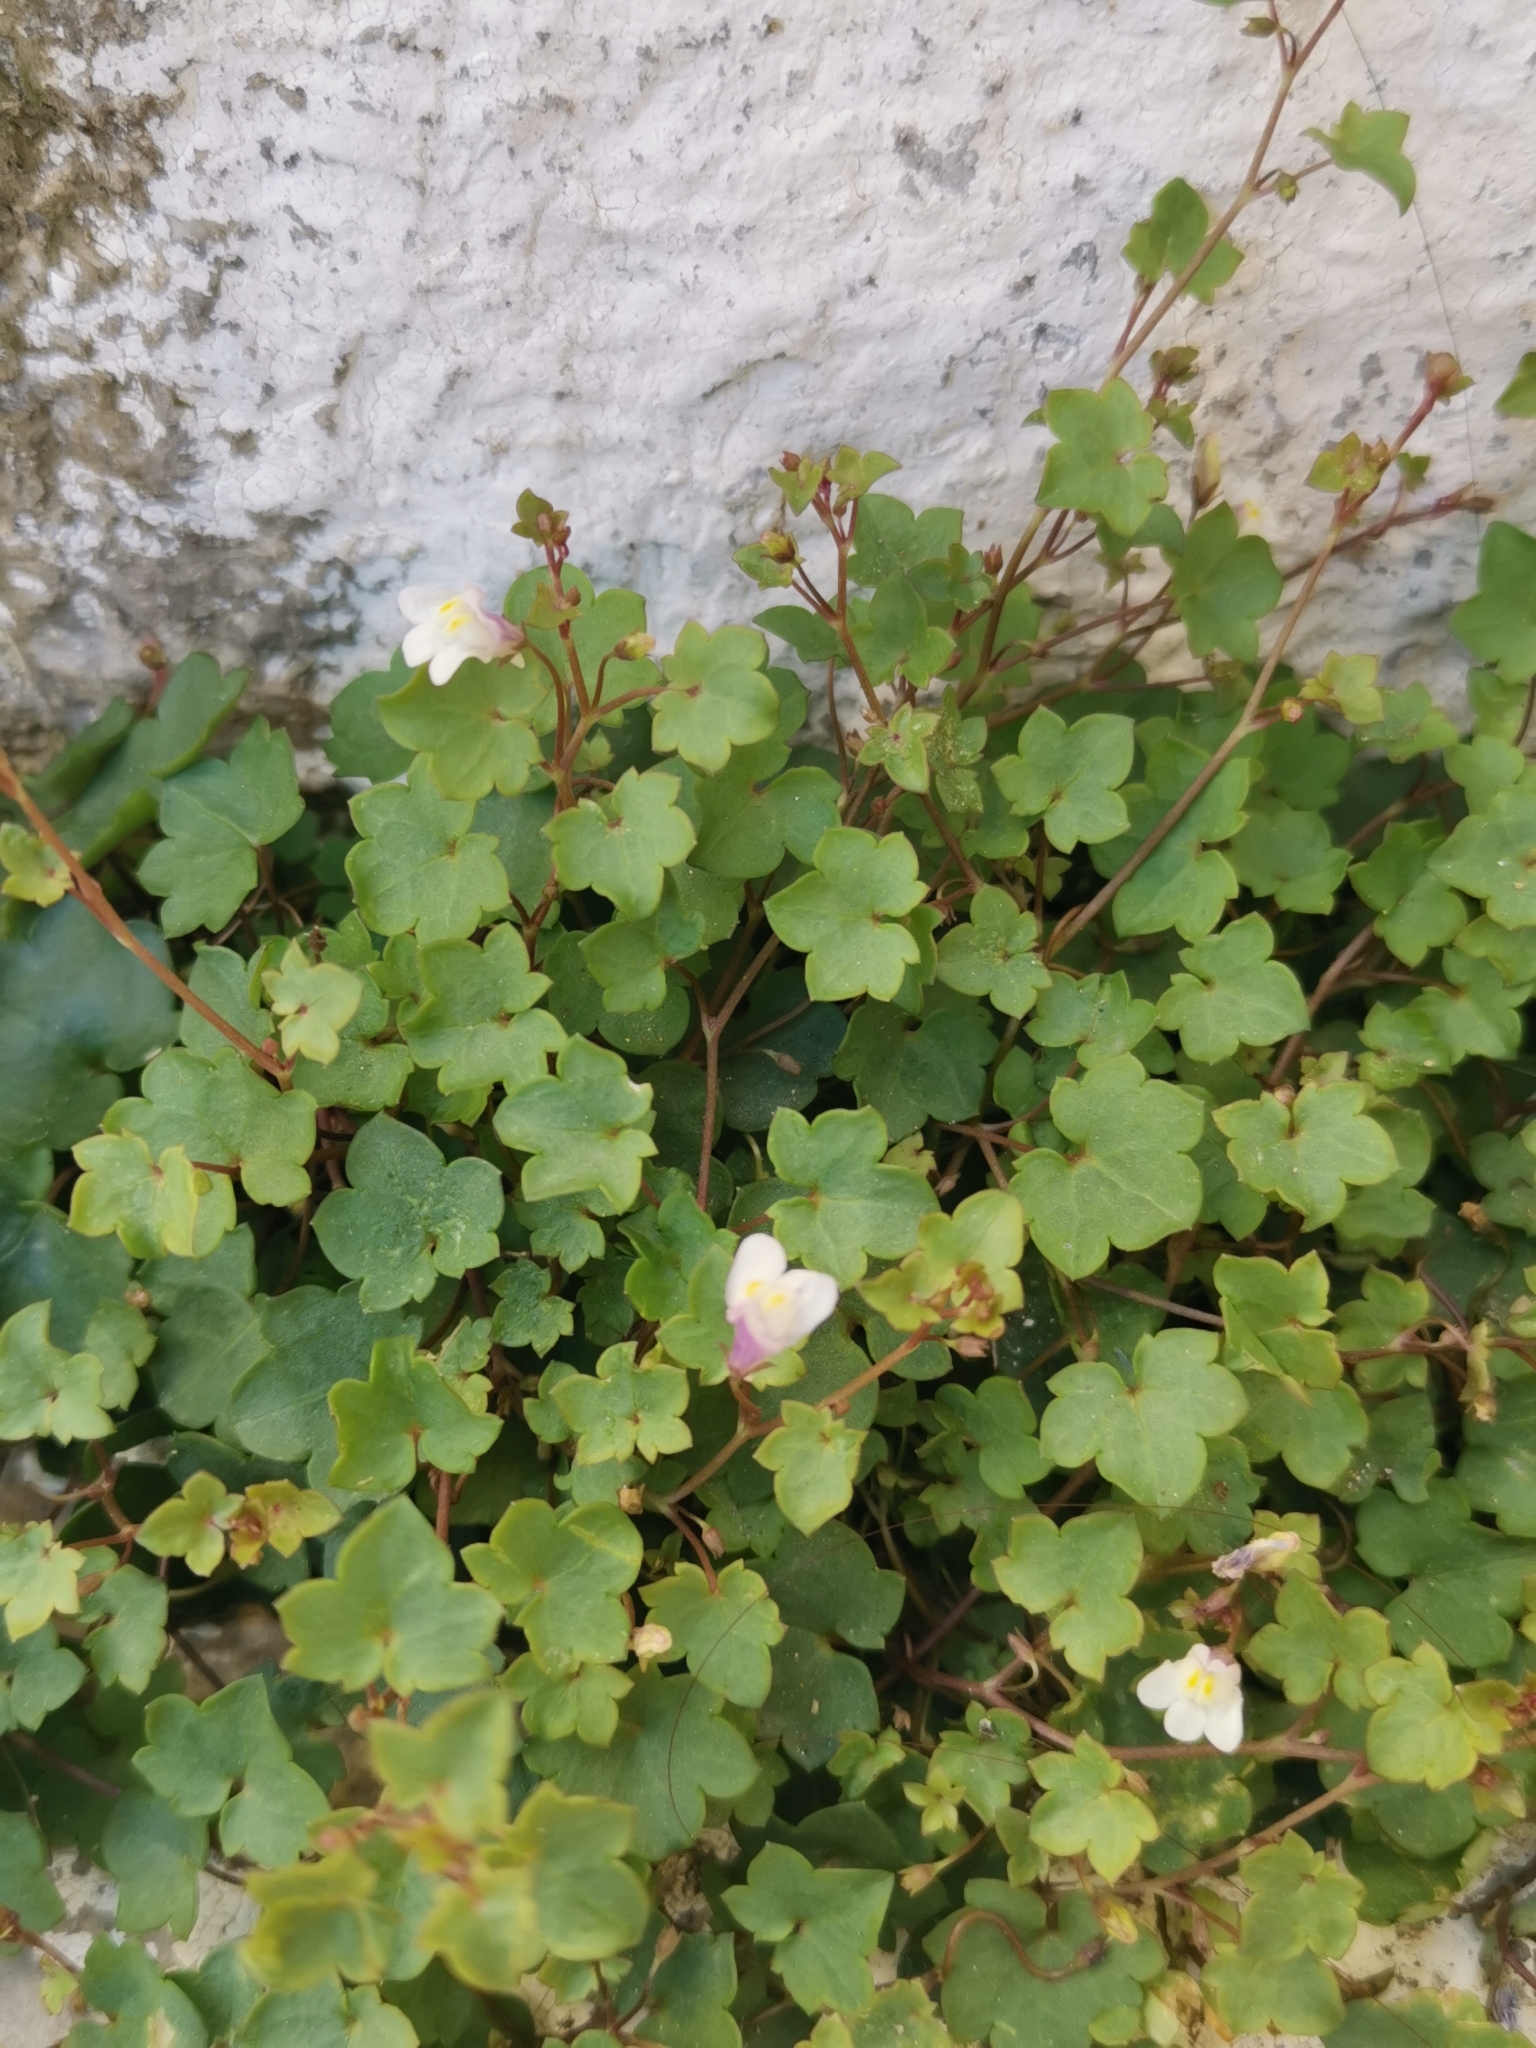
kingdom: Plantae
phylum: Tracheophyta
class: Magnoliopsida
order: Lamiales
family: Plantaginaceae
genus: Cymbalaria
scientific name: Cymbalaria muralis
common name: Ivy-leaved toadflax
